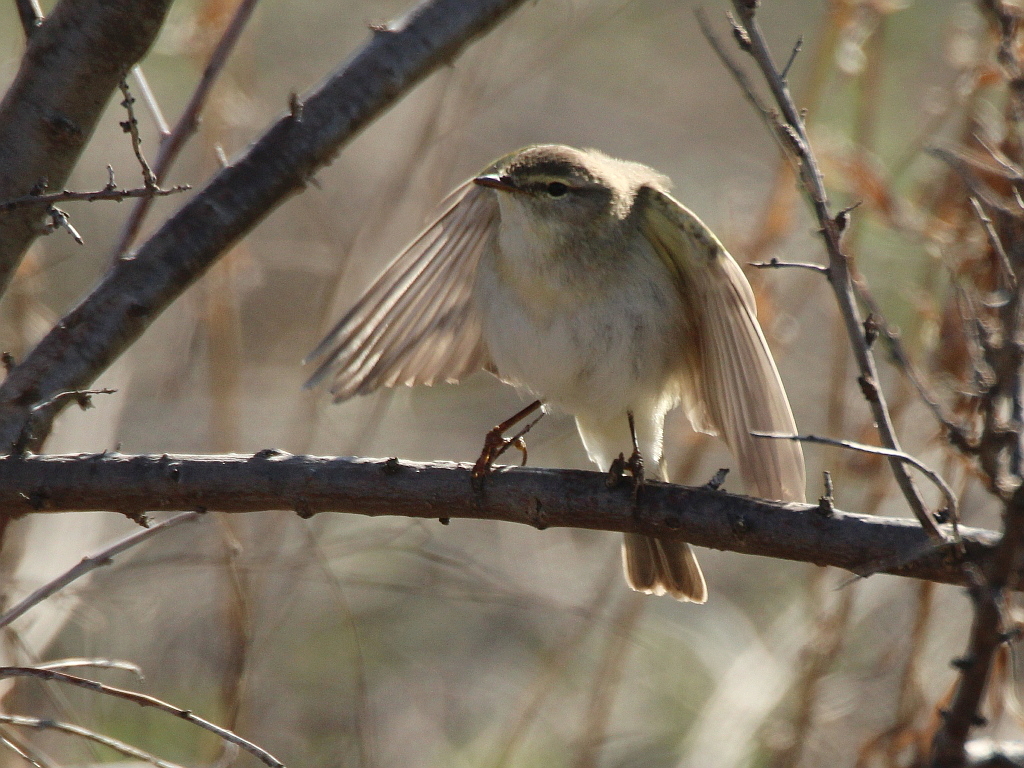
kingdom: Animalia
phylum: Chordata
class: Aves
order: Passeriformes
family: Phylloscopidae
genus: Phylloscopus
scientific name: Phylloscopus trochilus
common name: Willow warbler
